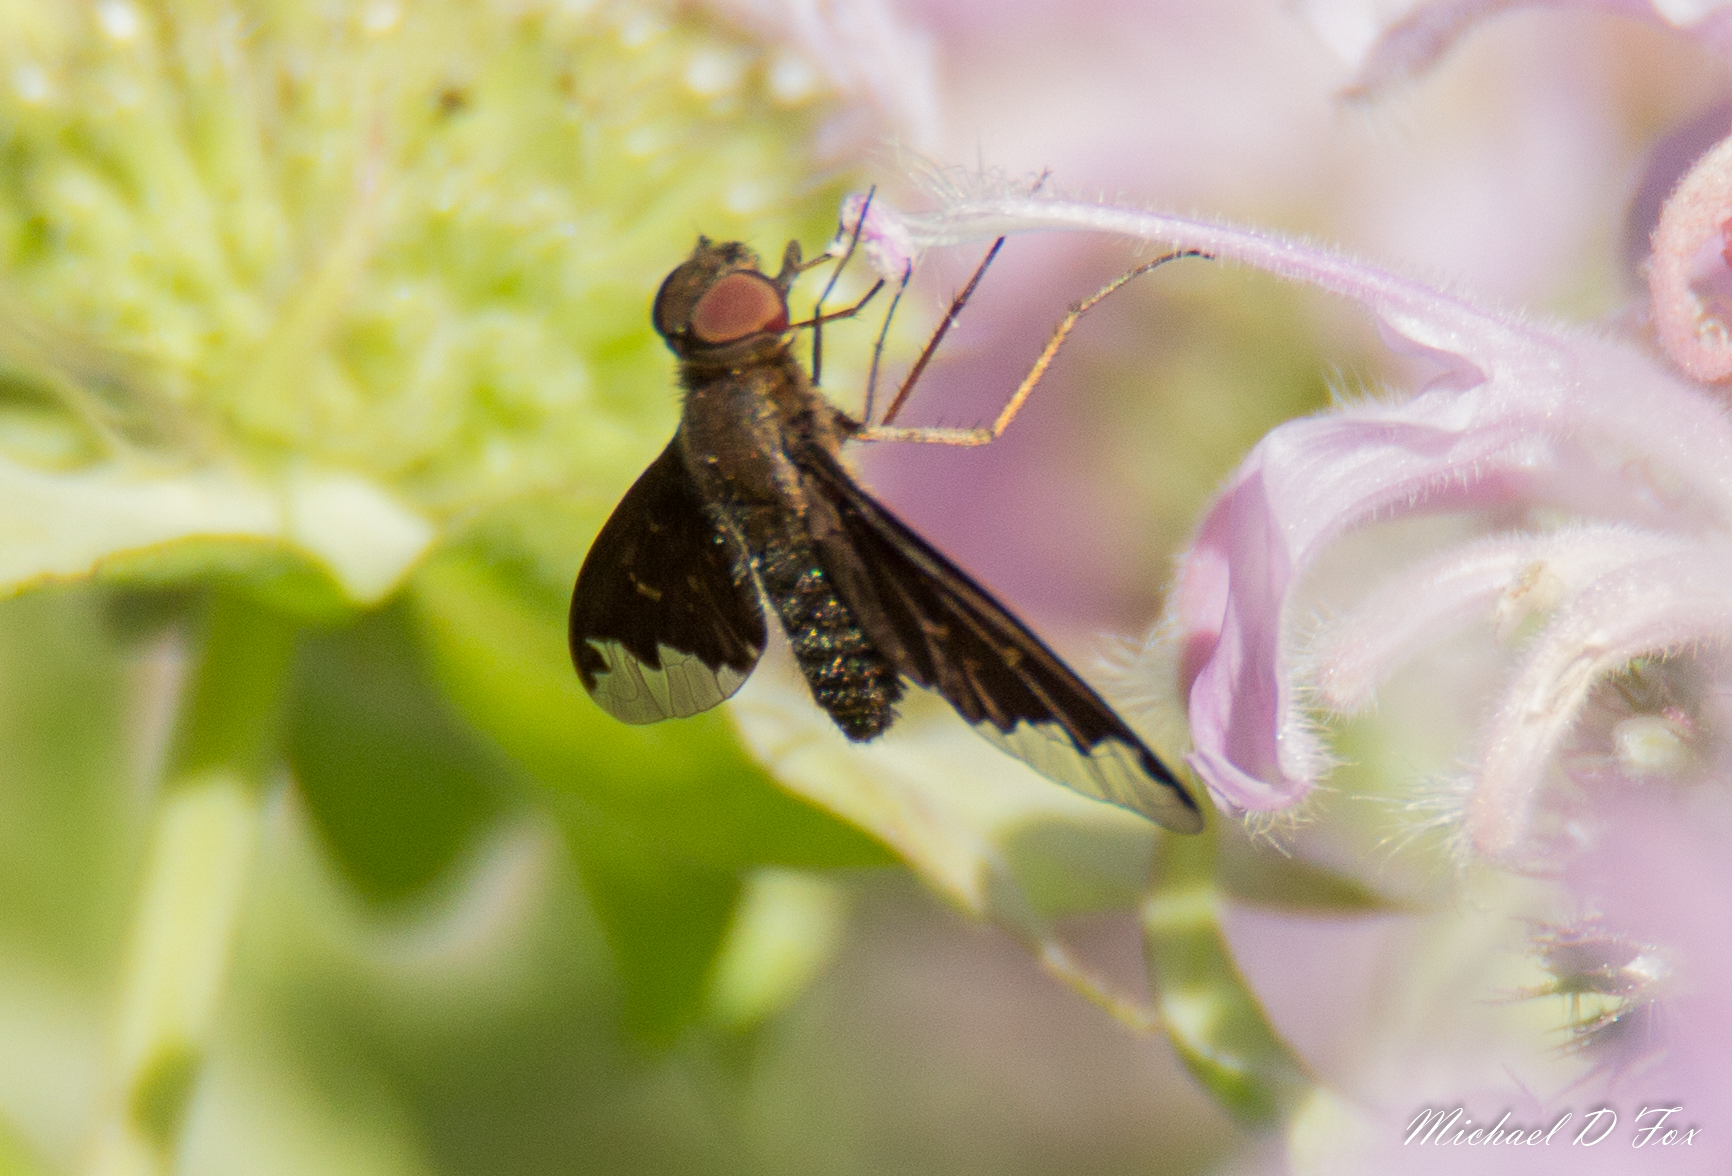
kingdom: Animalia
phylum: Arthropoda
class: Insecta
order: Diptera
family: Bombyliidae
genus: Hemipenthes
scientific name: Hemipenthes sinuosus
